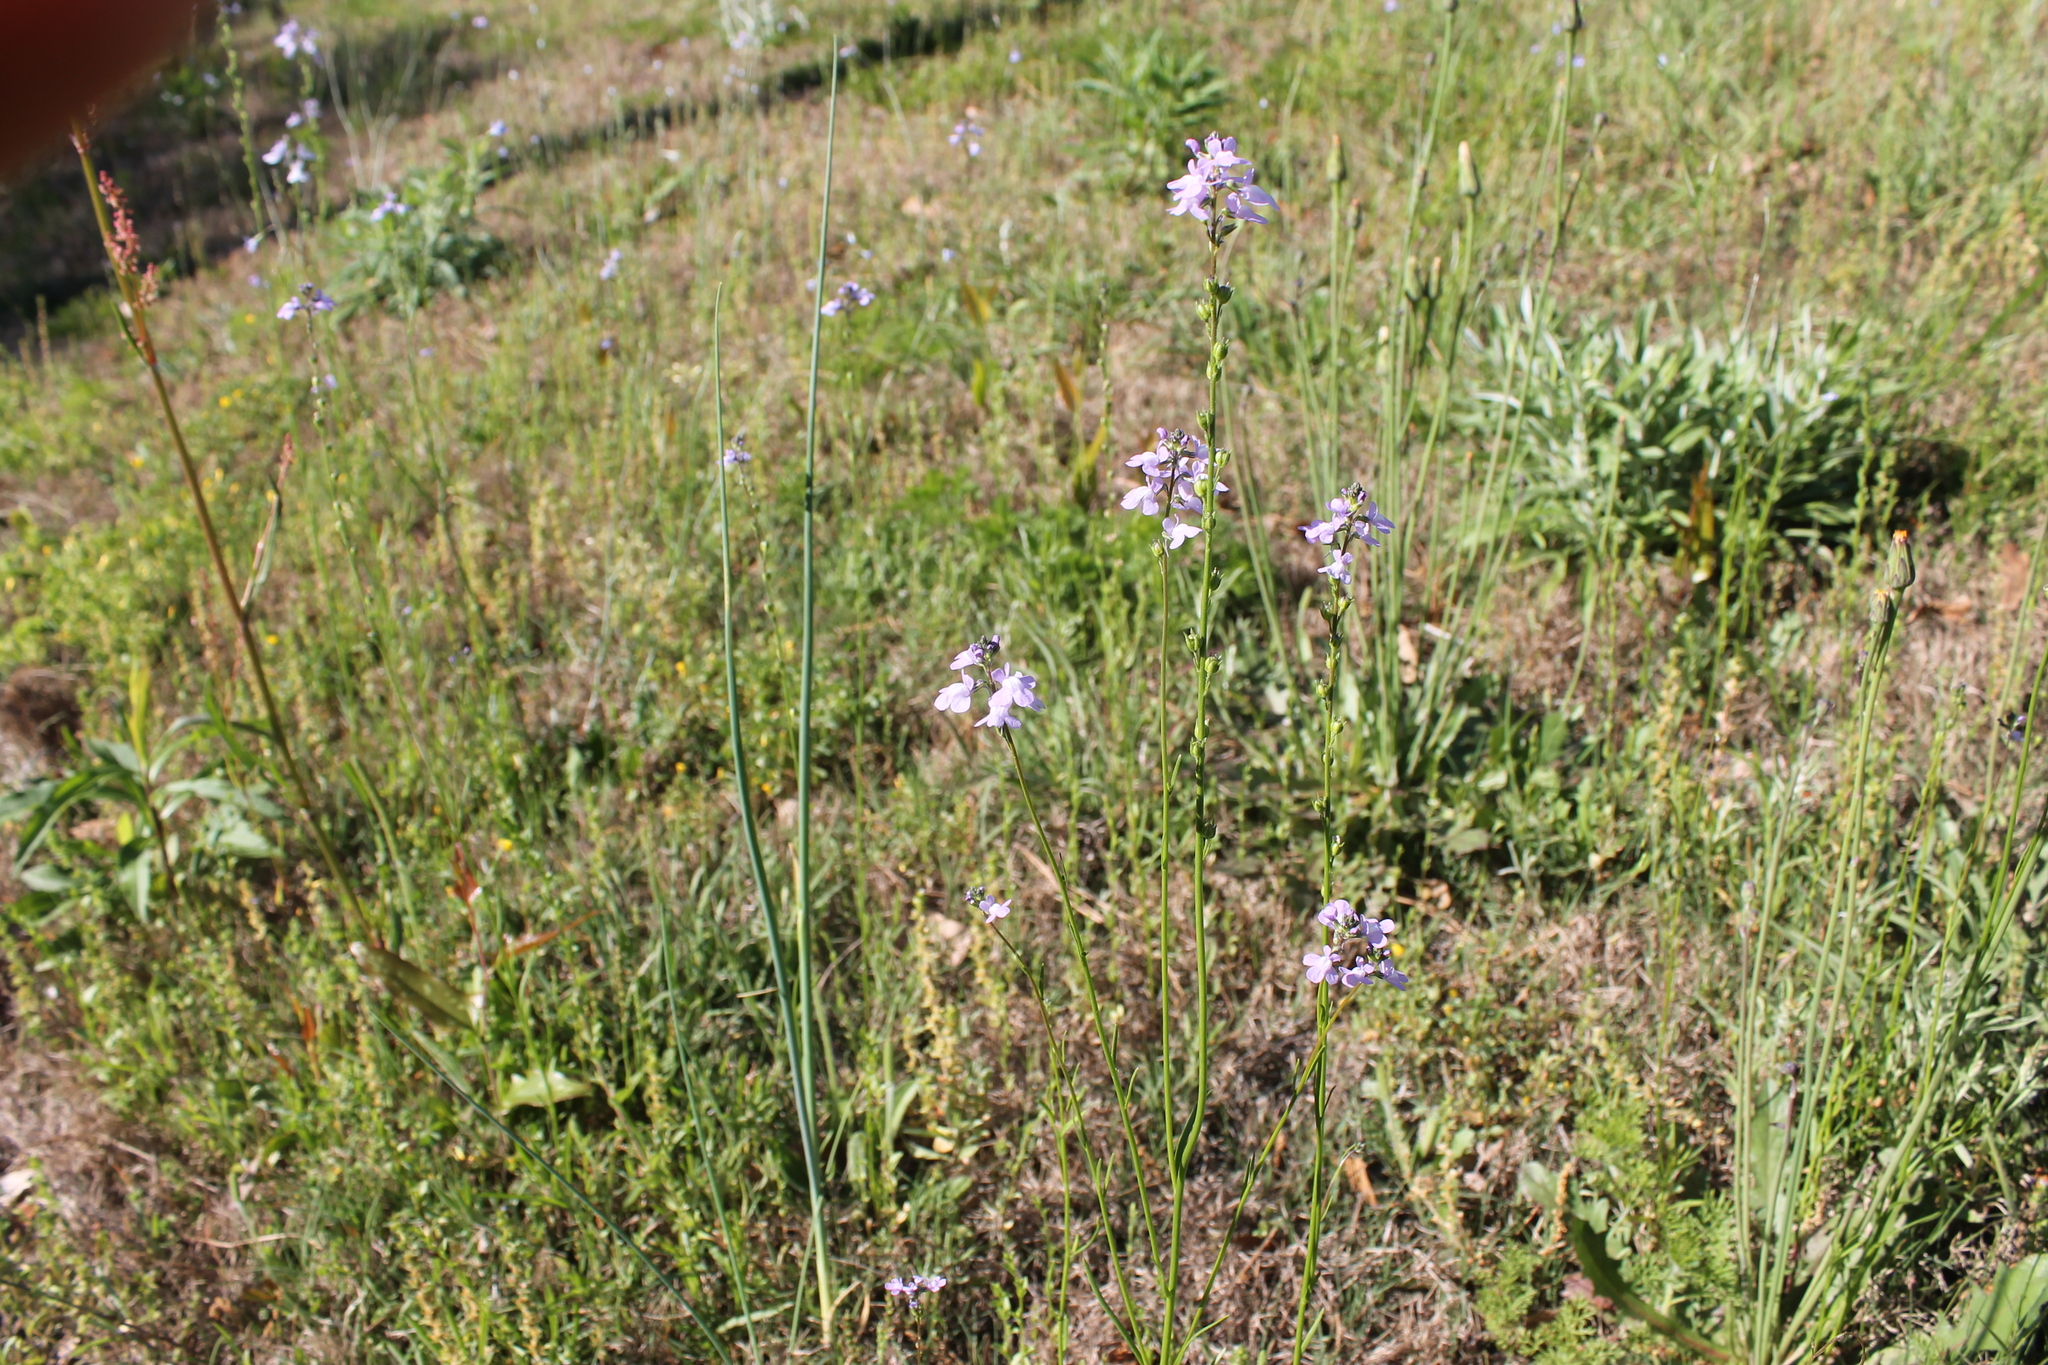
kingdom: Plantae
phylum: Tracheophyta
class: Magnoliopsida
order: Lamiales
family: Plantaginaceae
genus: Nuttallanthus
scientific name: Nuttallanthus canadensis
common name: Blue toadflax
